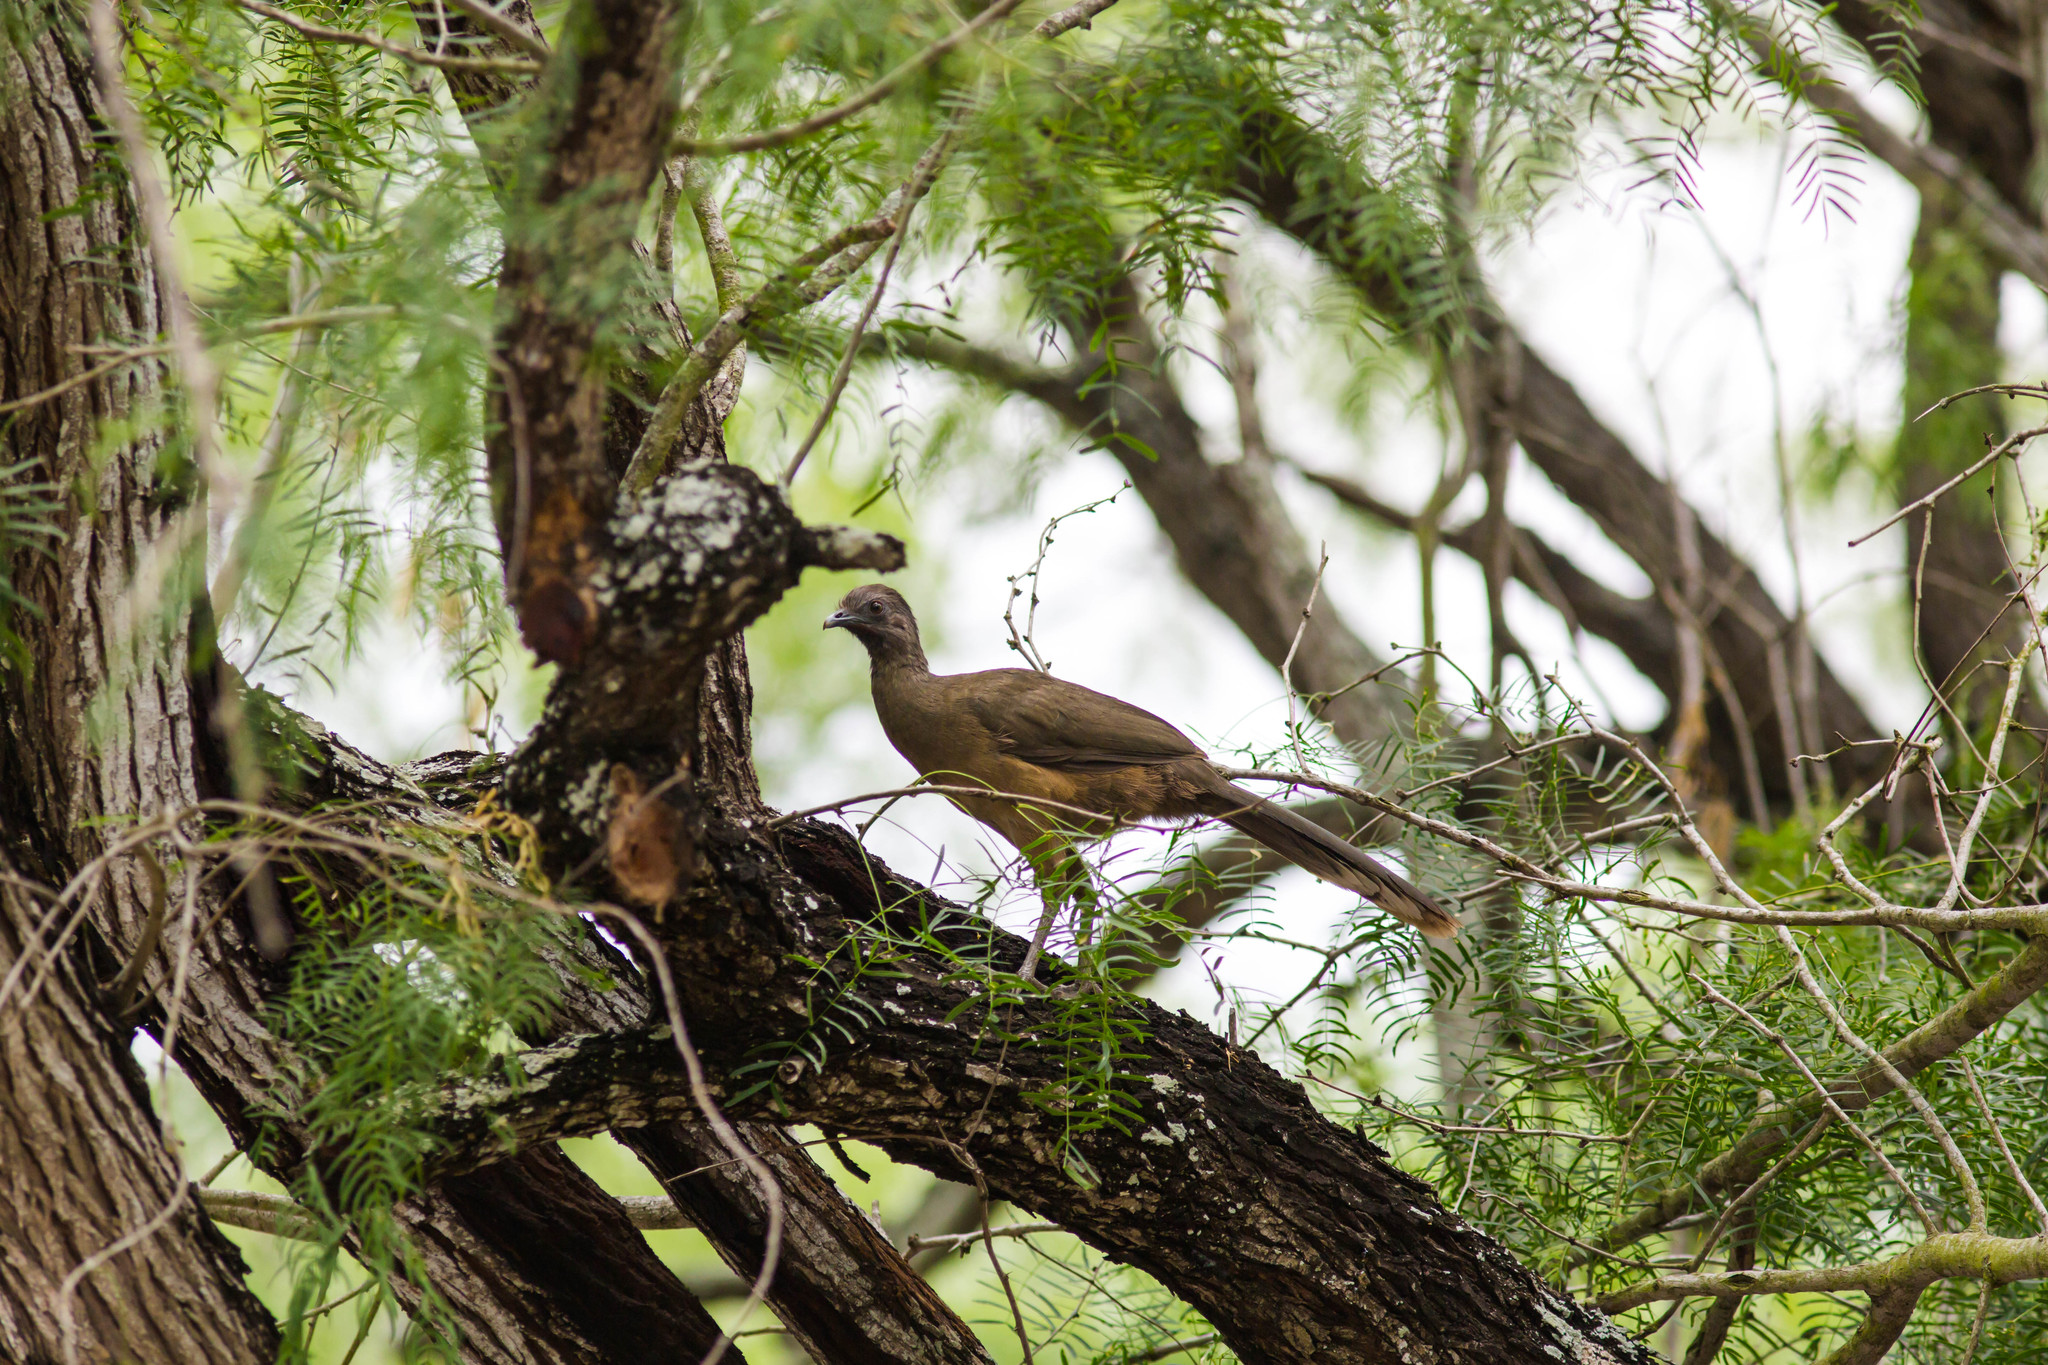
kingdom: Animalia
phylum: Chordata
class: Aves
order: Galliformes
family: Cracidae
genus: Ortalis
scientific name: Ortalis vetula
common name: Plain chachalaca
